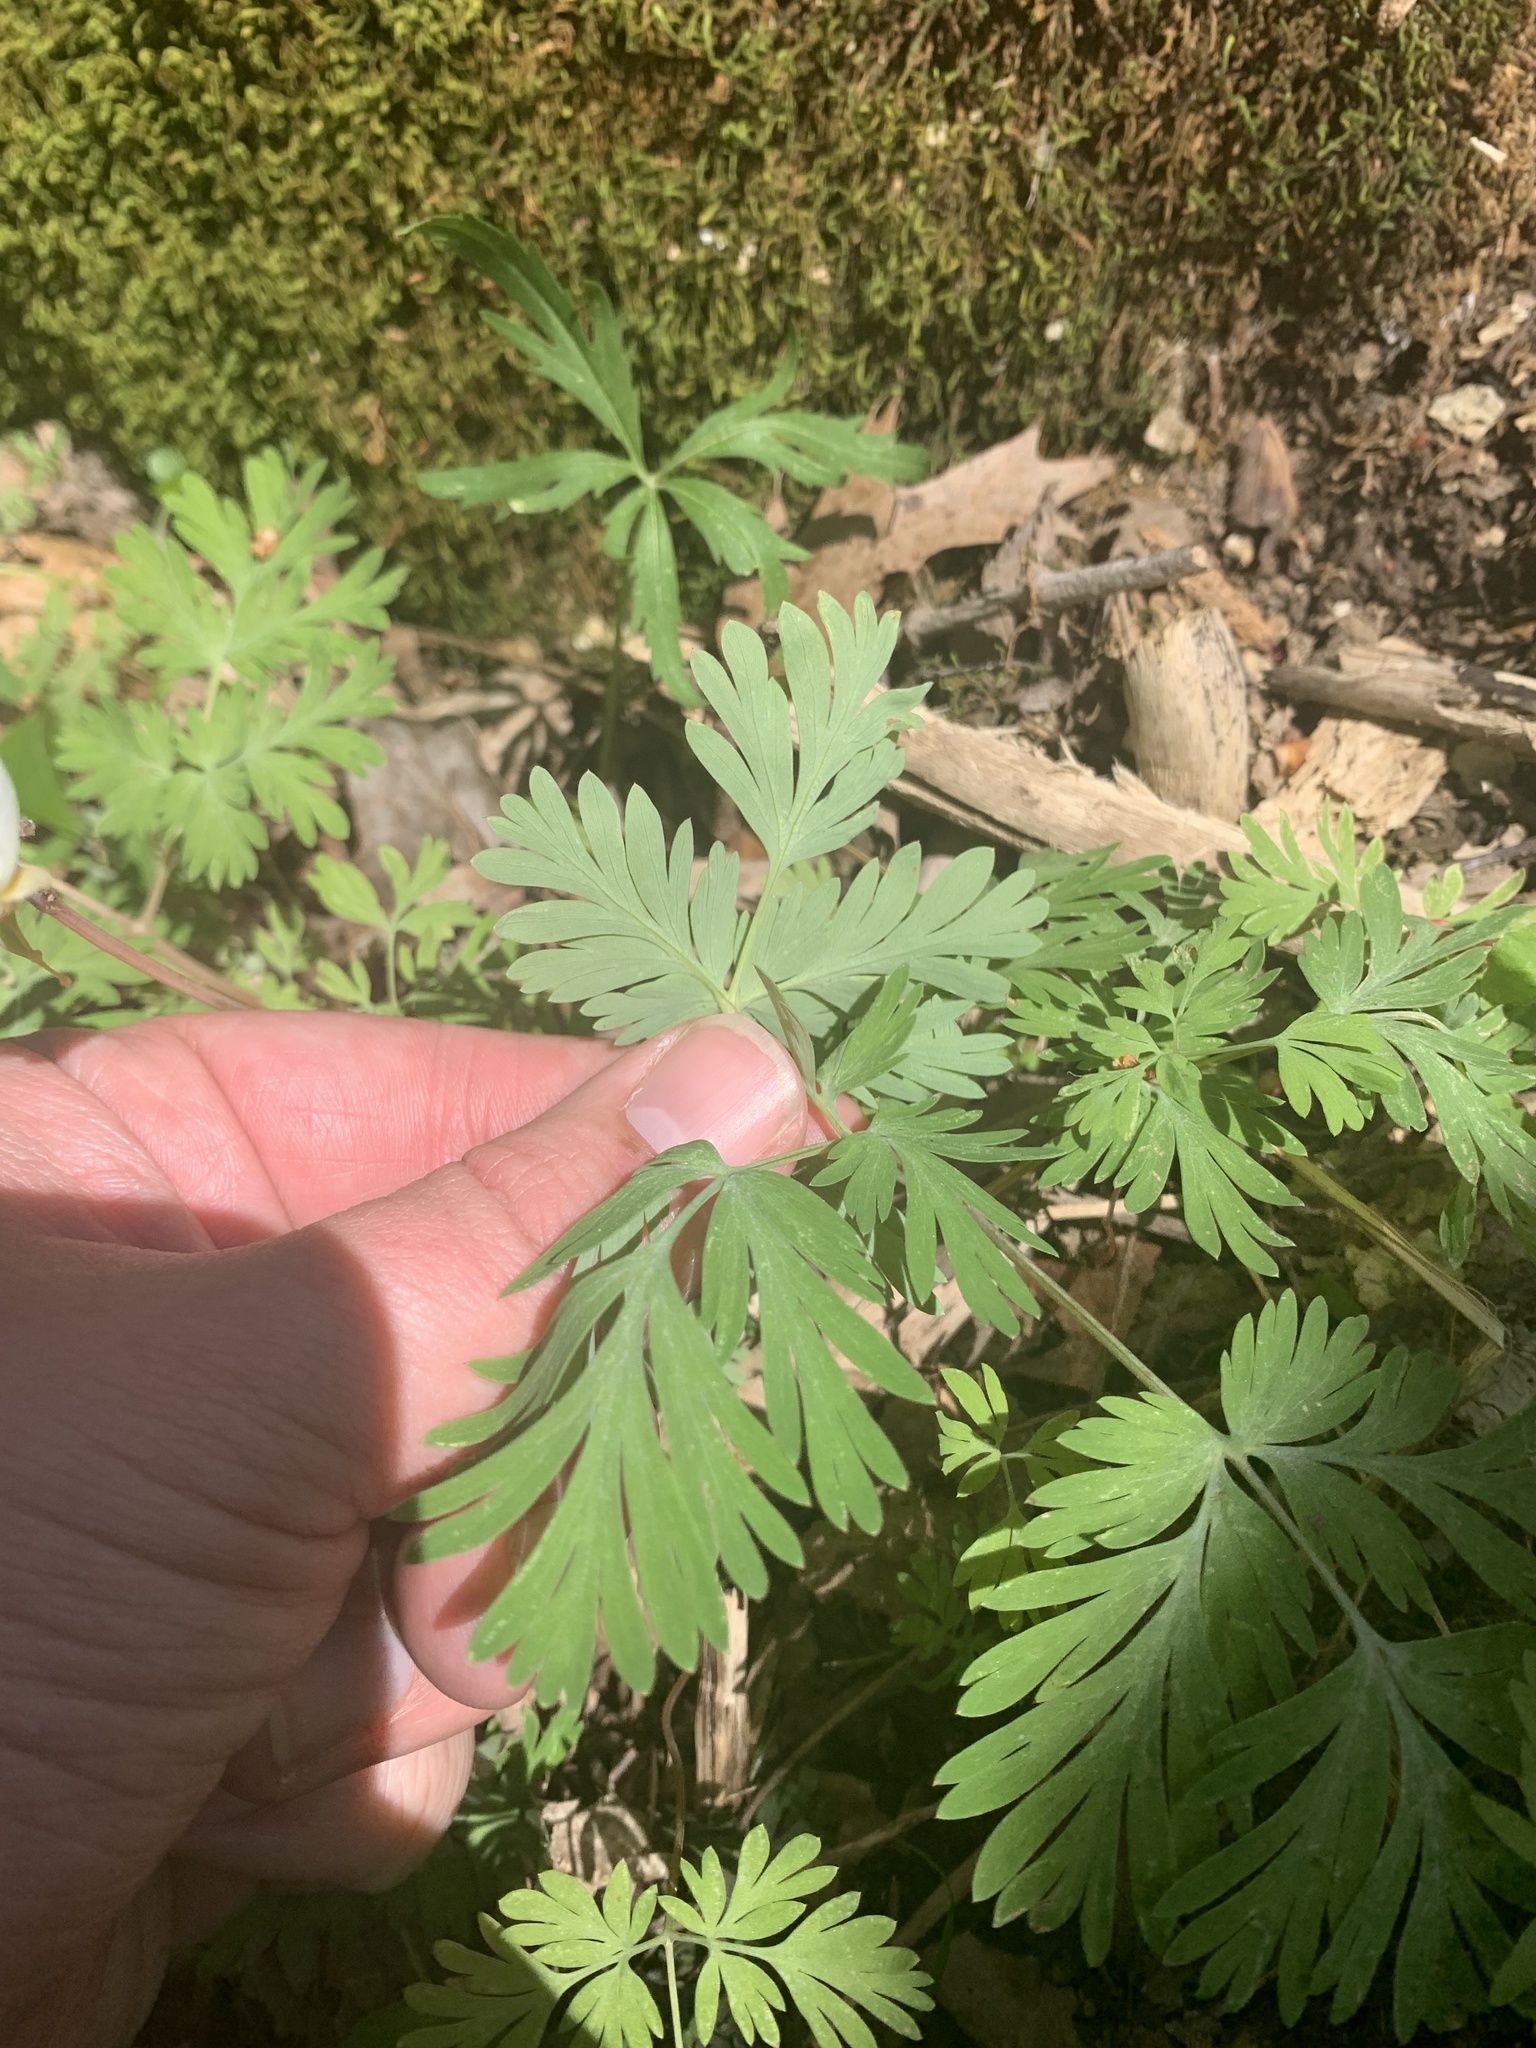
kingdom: Plantae
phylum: Tracheophyta
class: Magnoliopsida
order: Ranunculales
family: Papaveraceae
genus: Dicentra
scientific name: Dicentra cucullaria
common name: Dutchman's breeches
